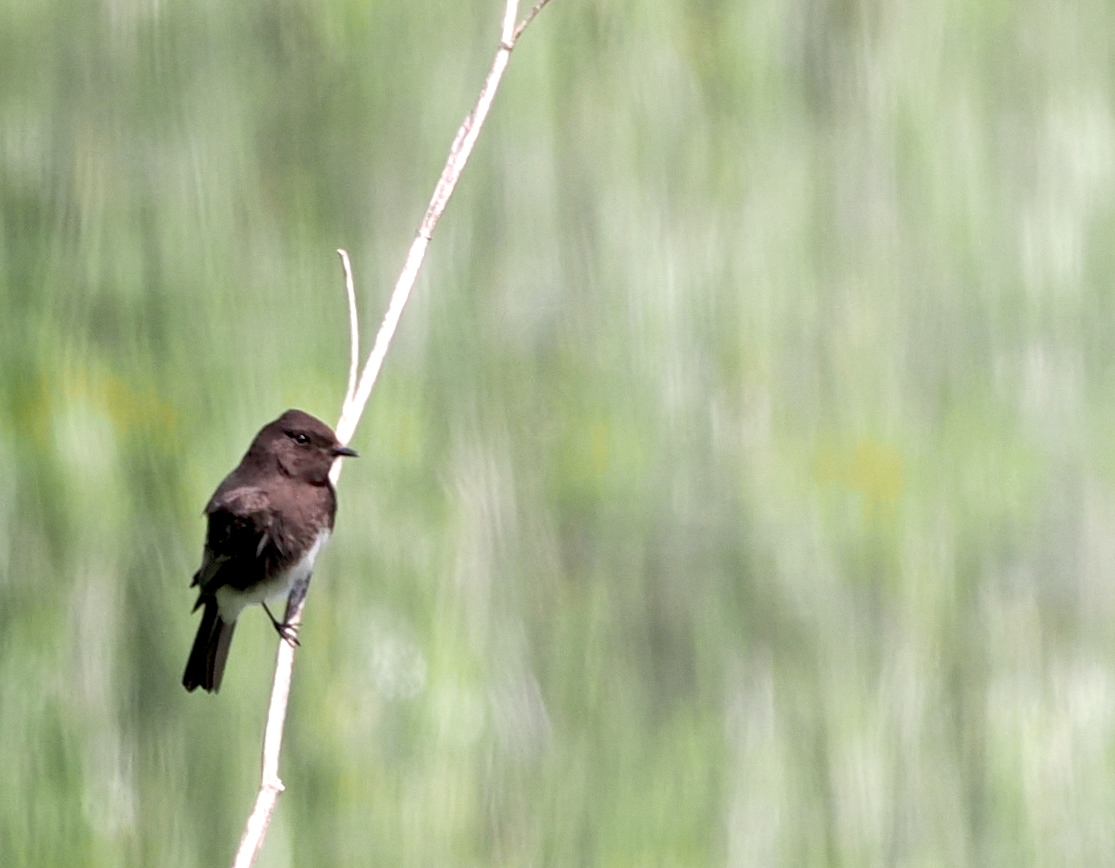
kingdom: Animalia
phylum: Chordata
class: Aves
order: Passeriformes
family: Tyrannidae
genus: Sayornis
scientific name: Sayornis nigricans
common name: Black phoebe
